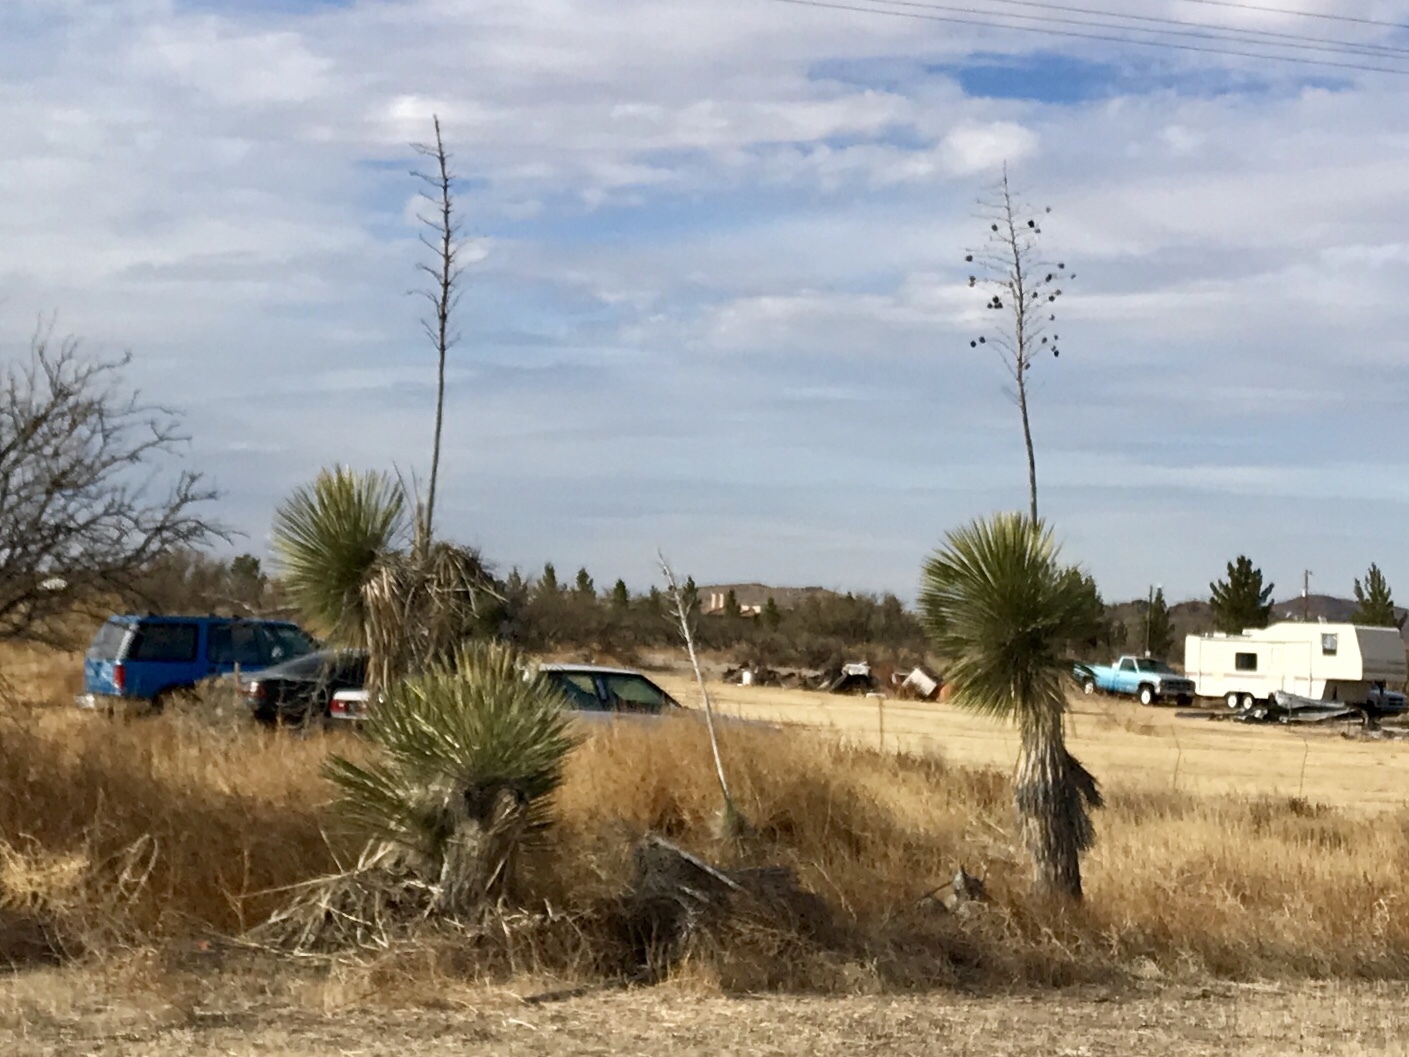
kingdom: Plantae
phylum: Tracheophyta
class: Liliopsida
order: Asparagales
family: Asparagaceae
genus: Yucca
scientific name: Yucca elata
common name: Palmella
